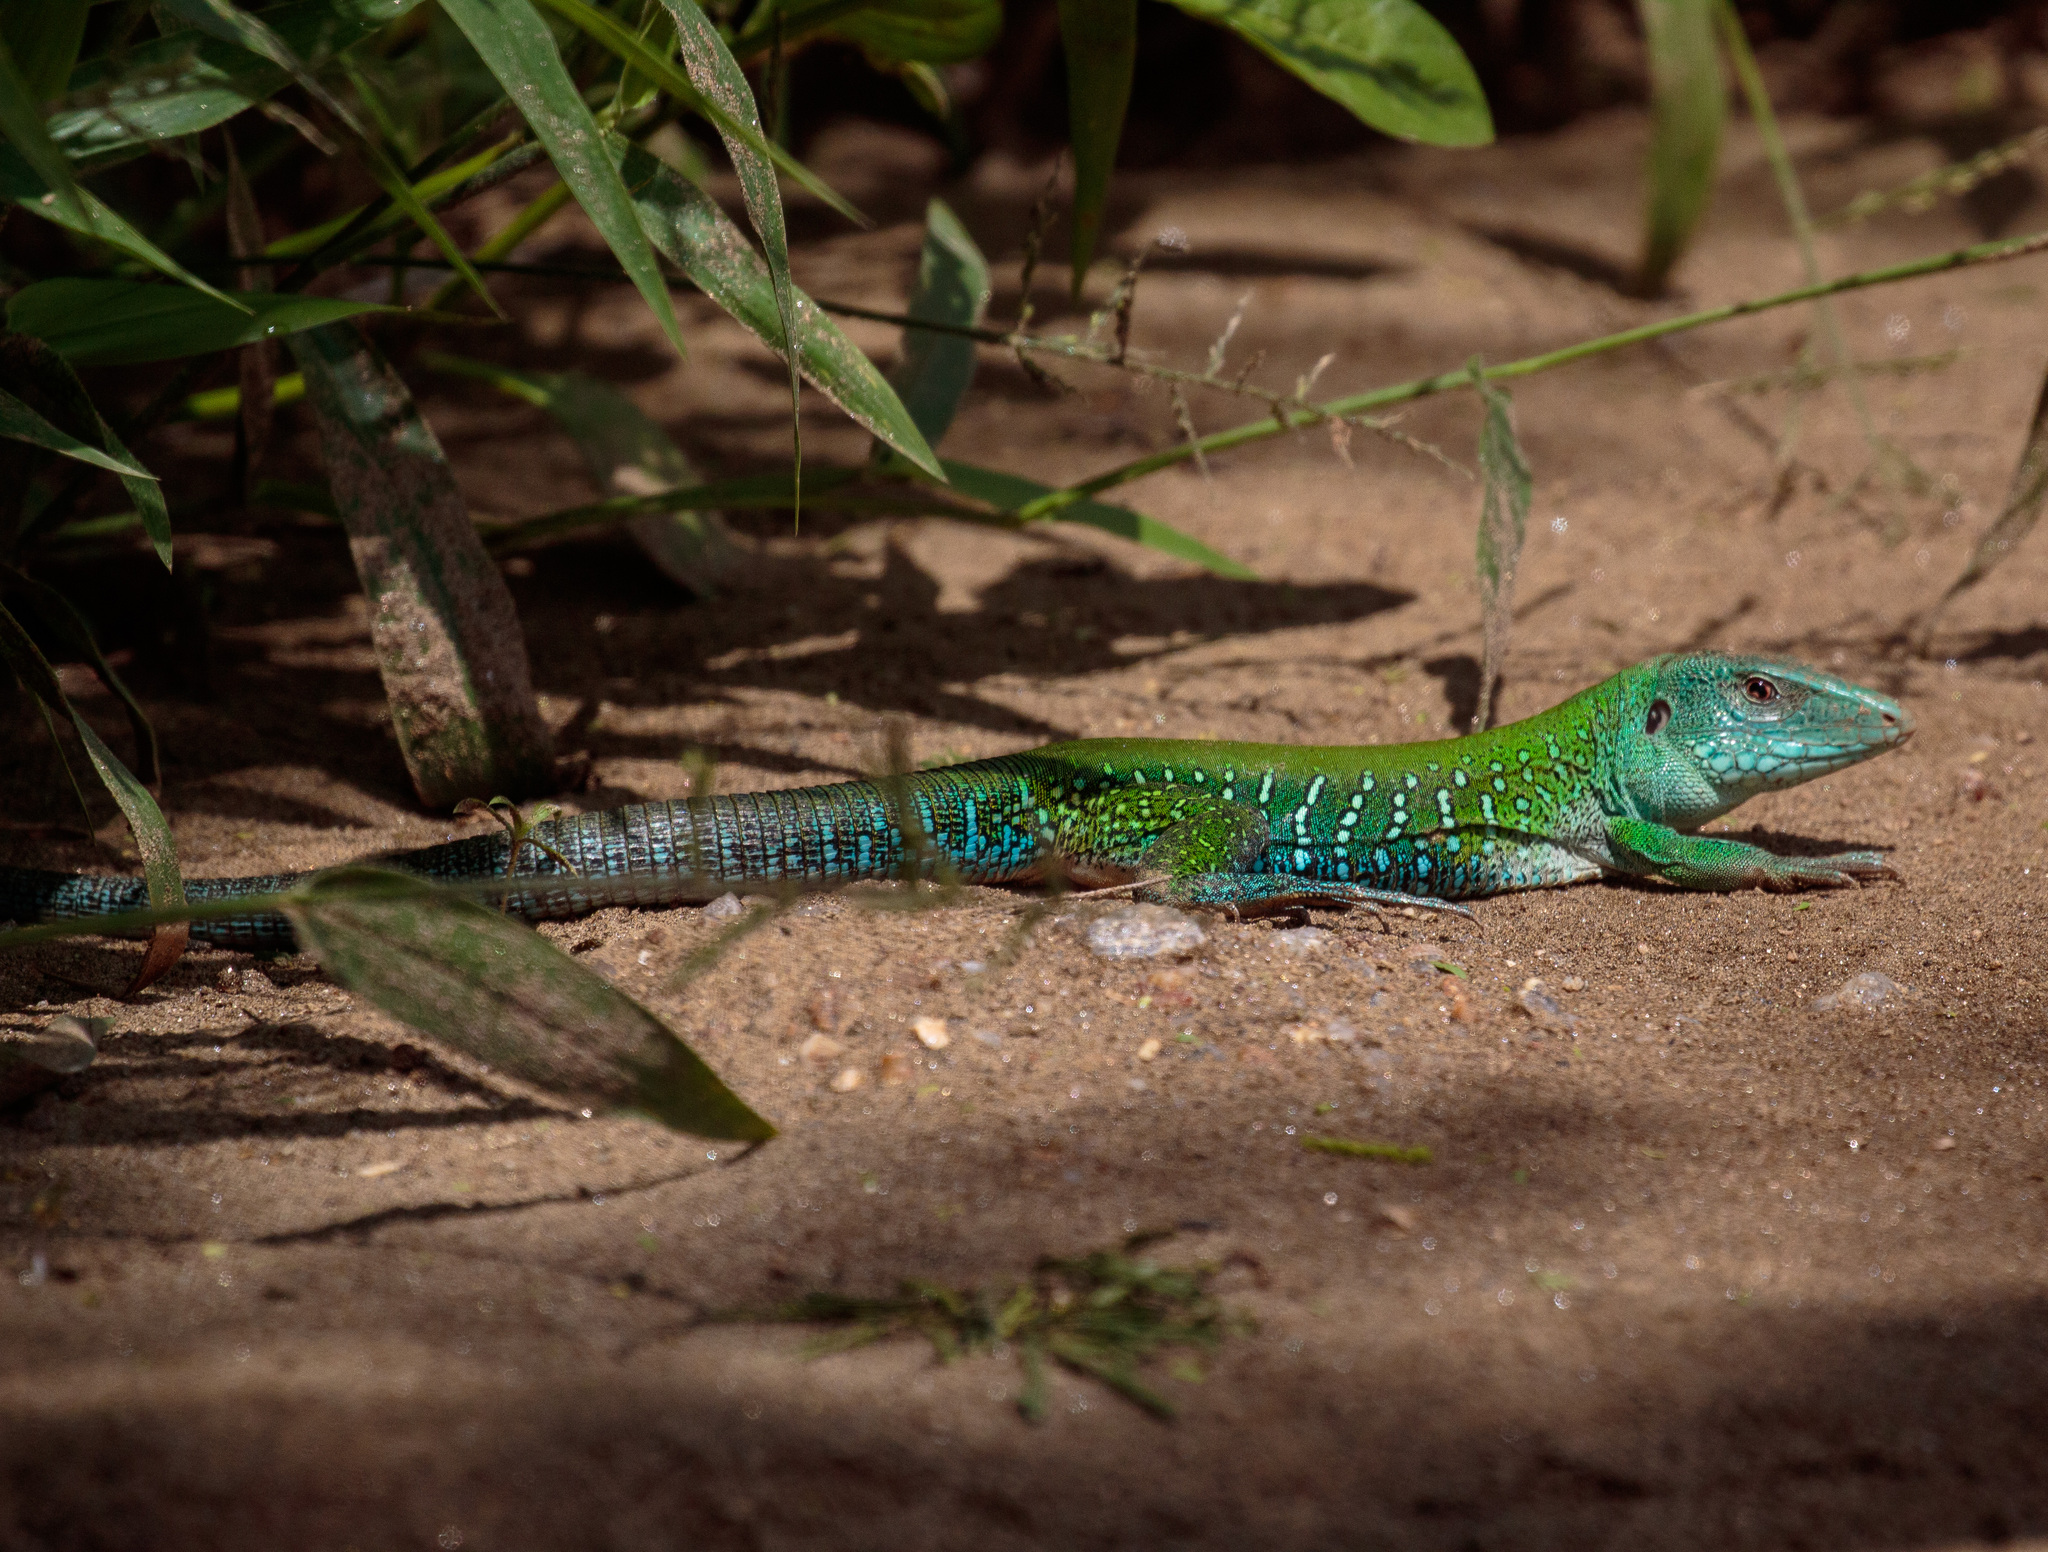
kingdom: Animalia
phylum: Chordata
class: Squamata
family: Teiidae
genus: Ameiva
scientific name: Ameiva ameiva
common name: Giant ameiva
